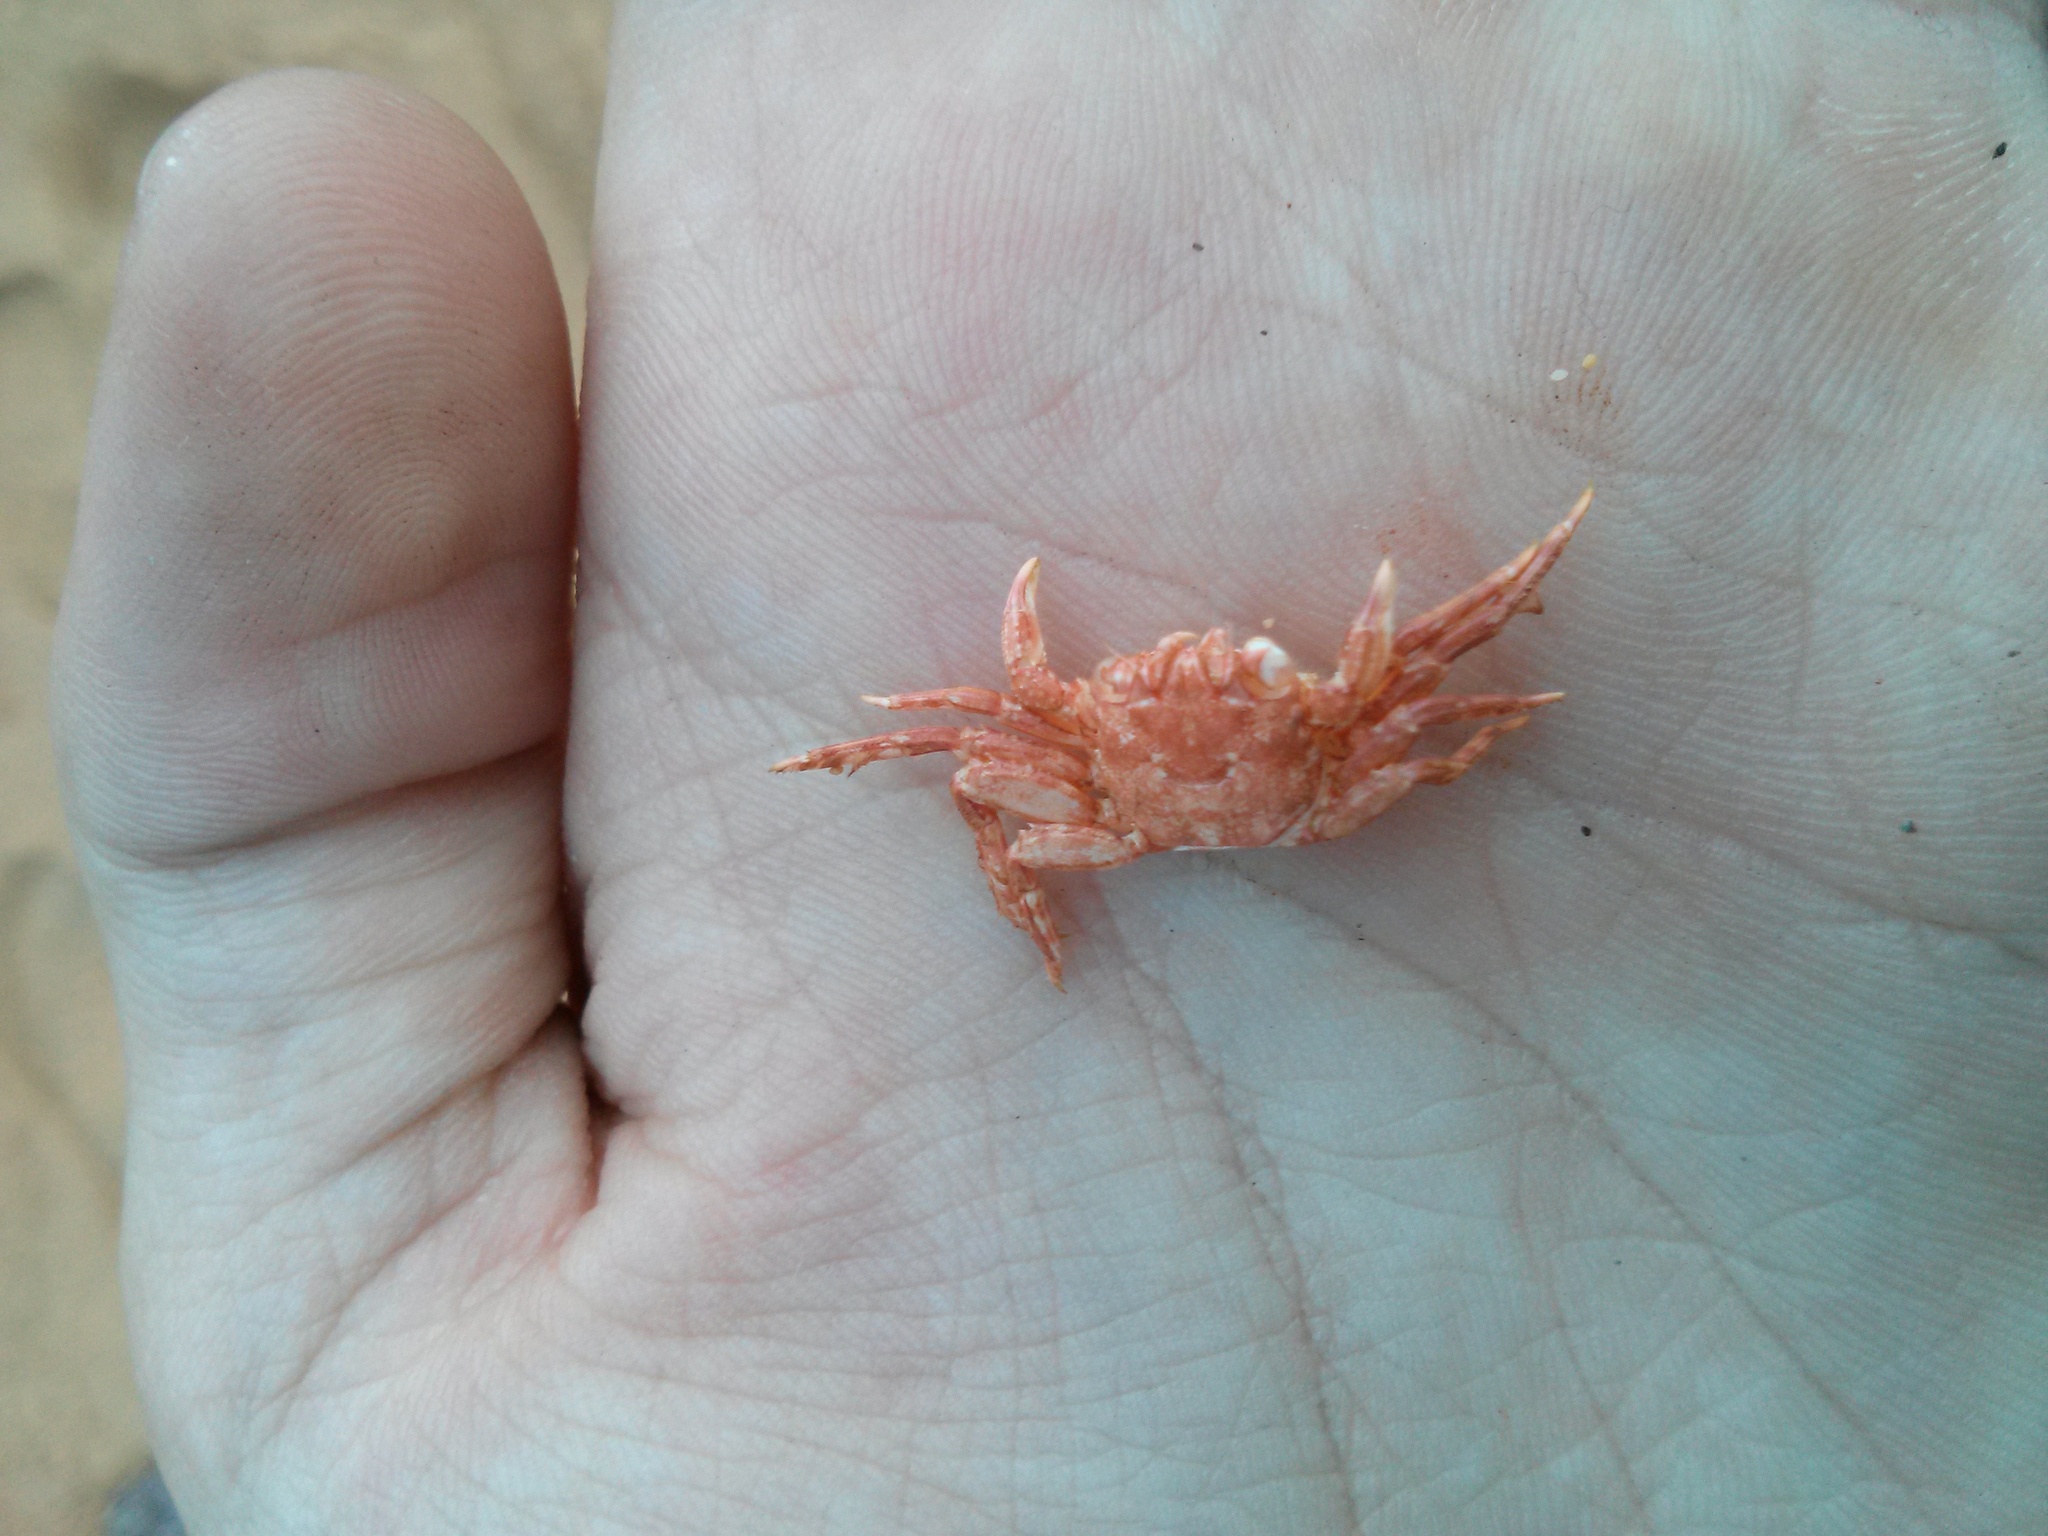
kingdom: Animalia
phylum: Arthropoda
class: Malacostraca
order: Decapoda
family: Plagusiidae
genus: Guinusia
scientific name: Guinusia chabrus
